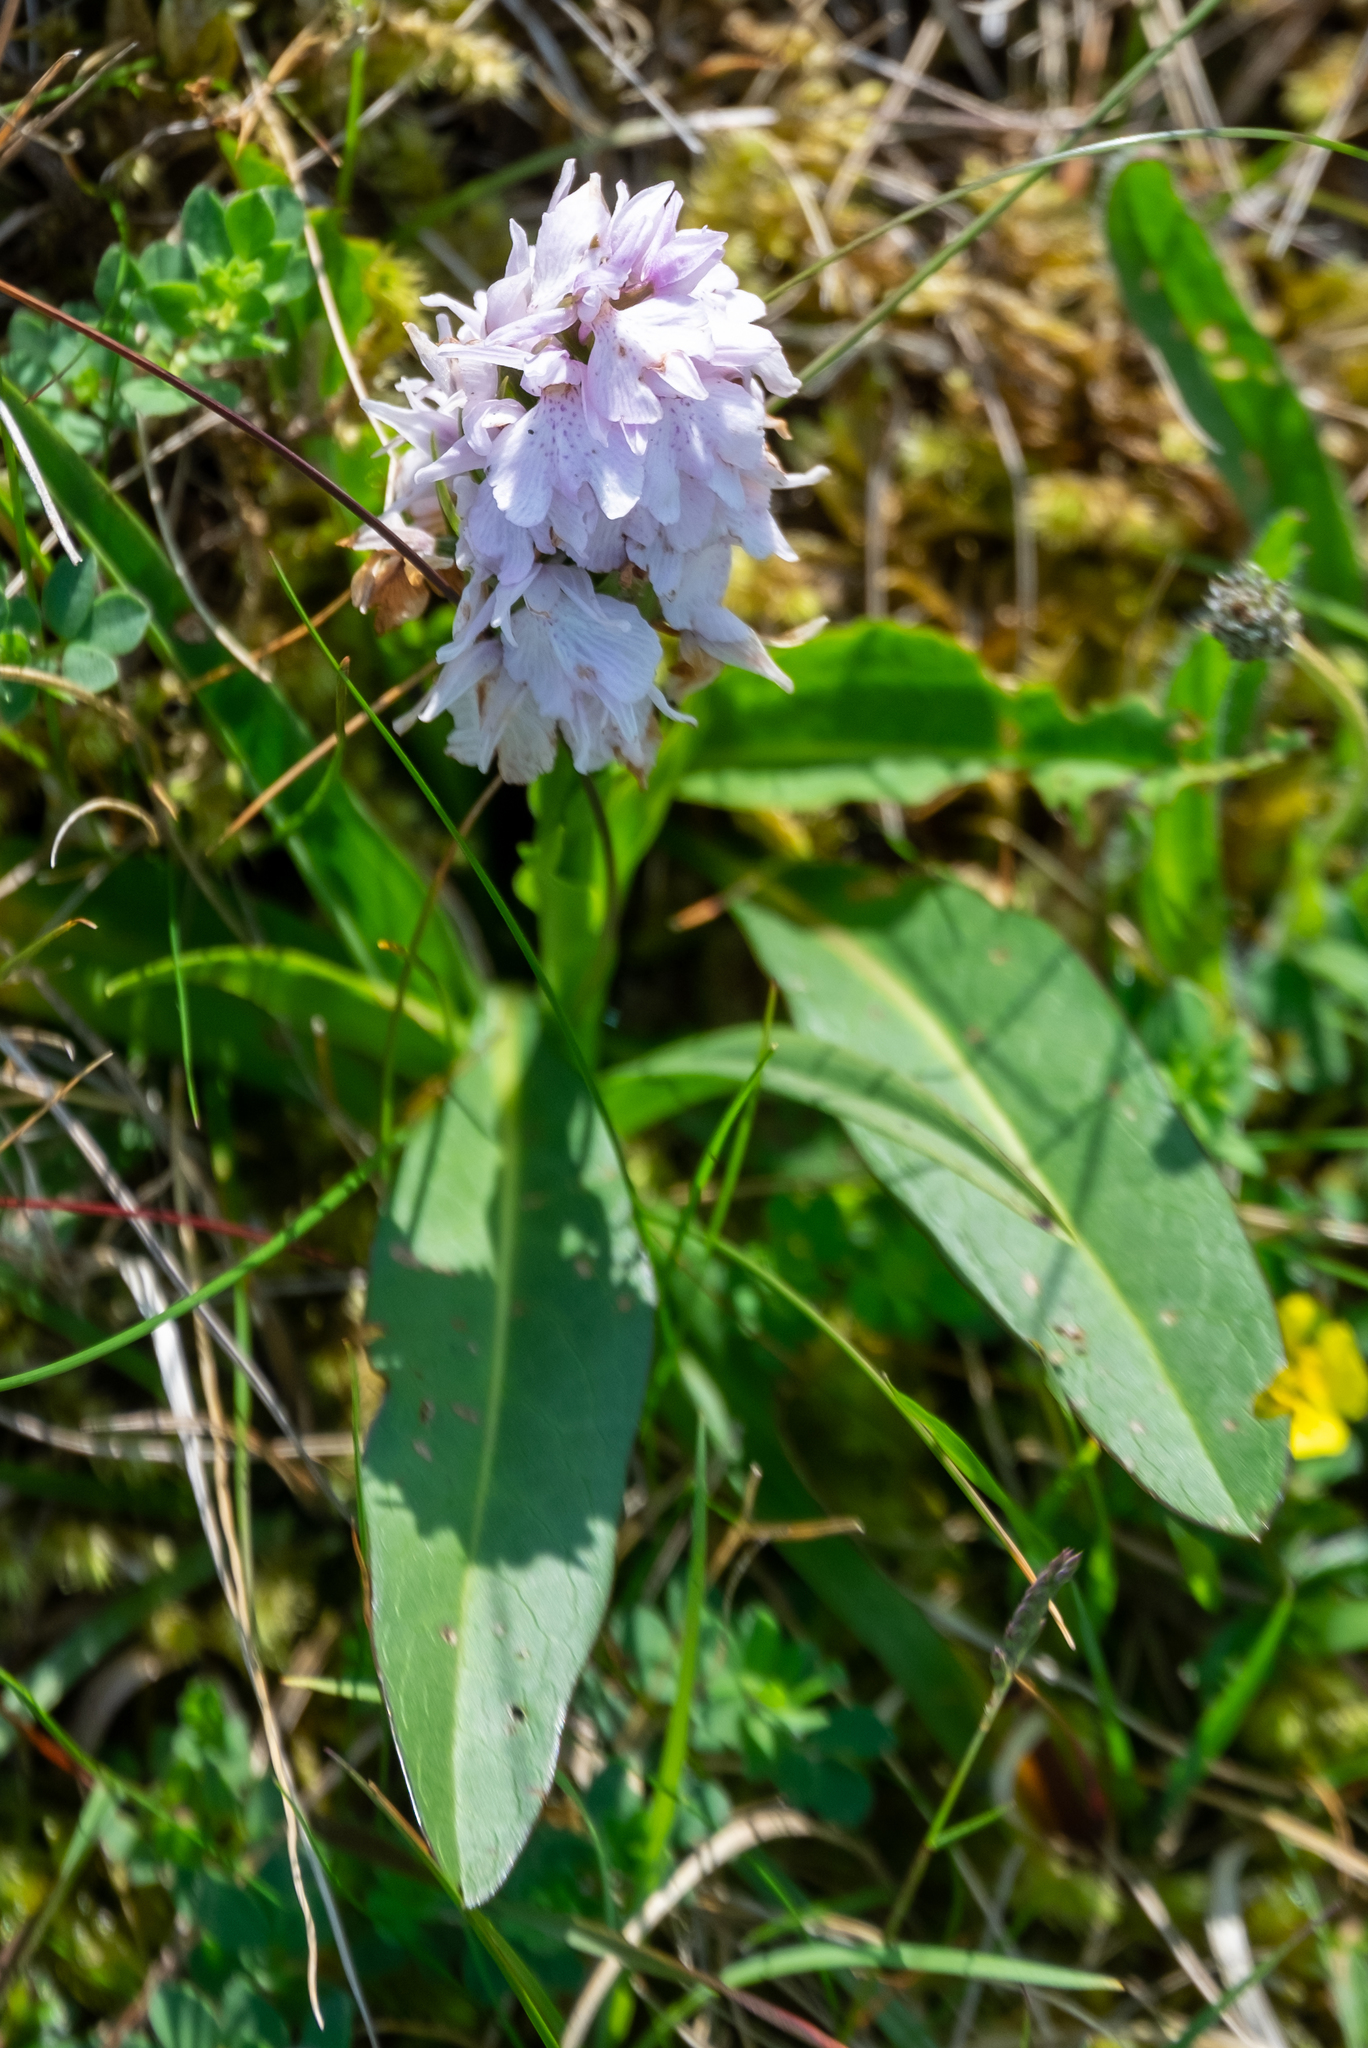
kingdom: Plantae
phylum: Tracheophyta
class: Liliopsida
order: Asparagales
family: Orchidaceae
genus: Dactylorhiza
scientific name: Dactylorhiza maculata
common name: Heath spotted-orchid
